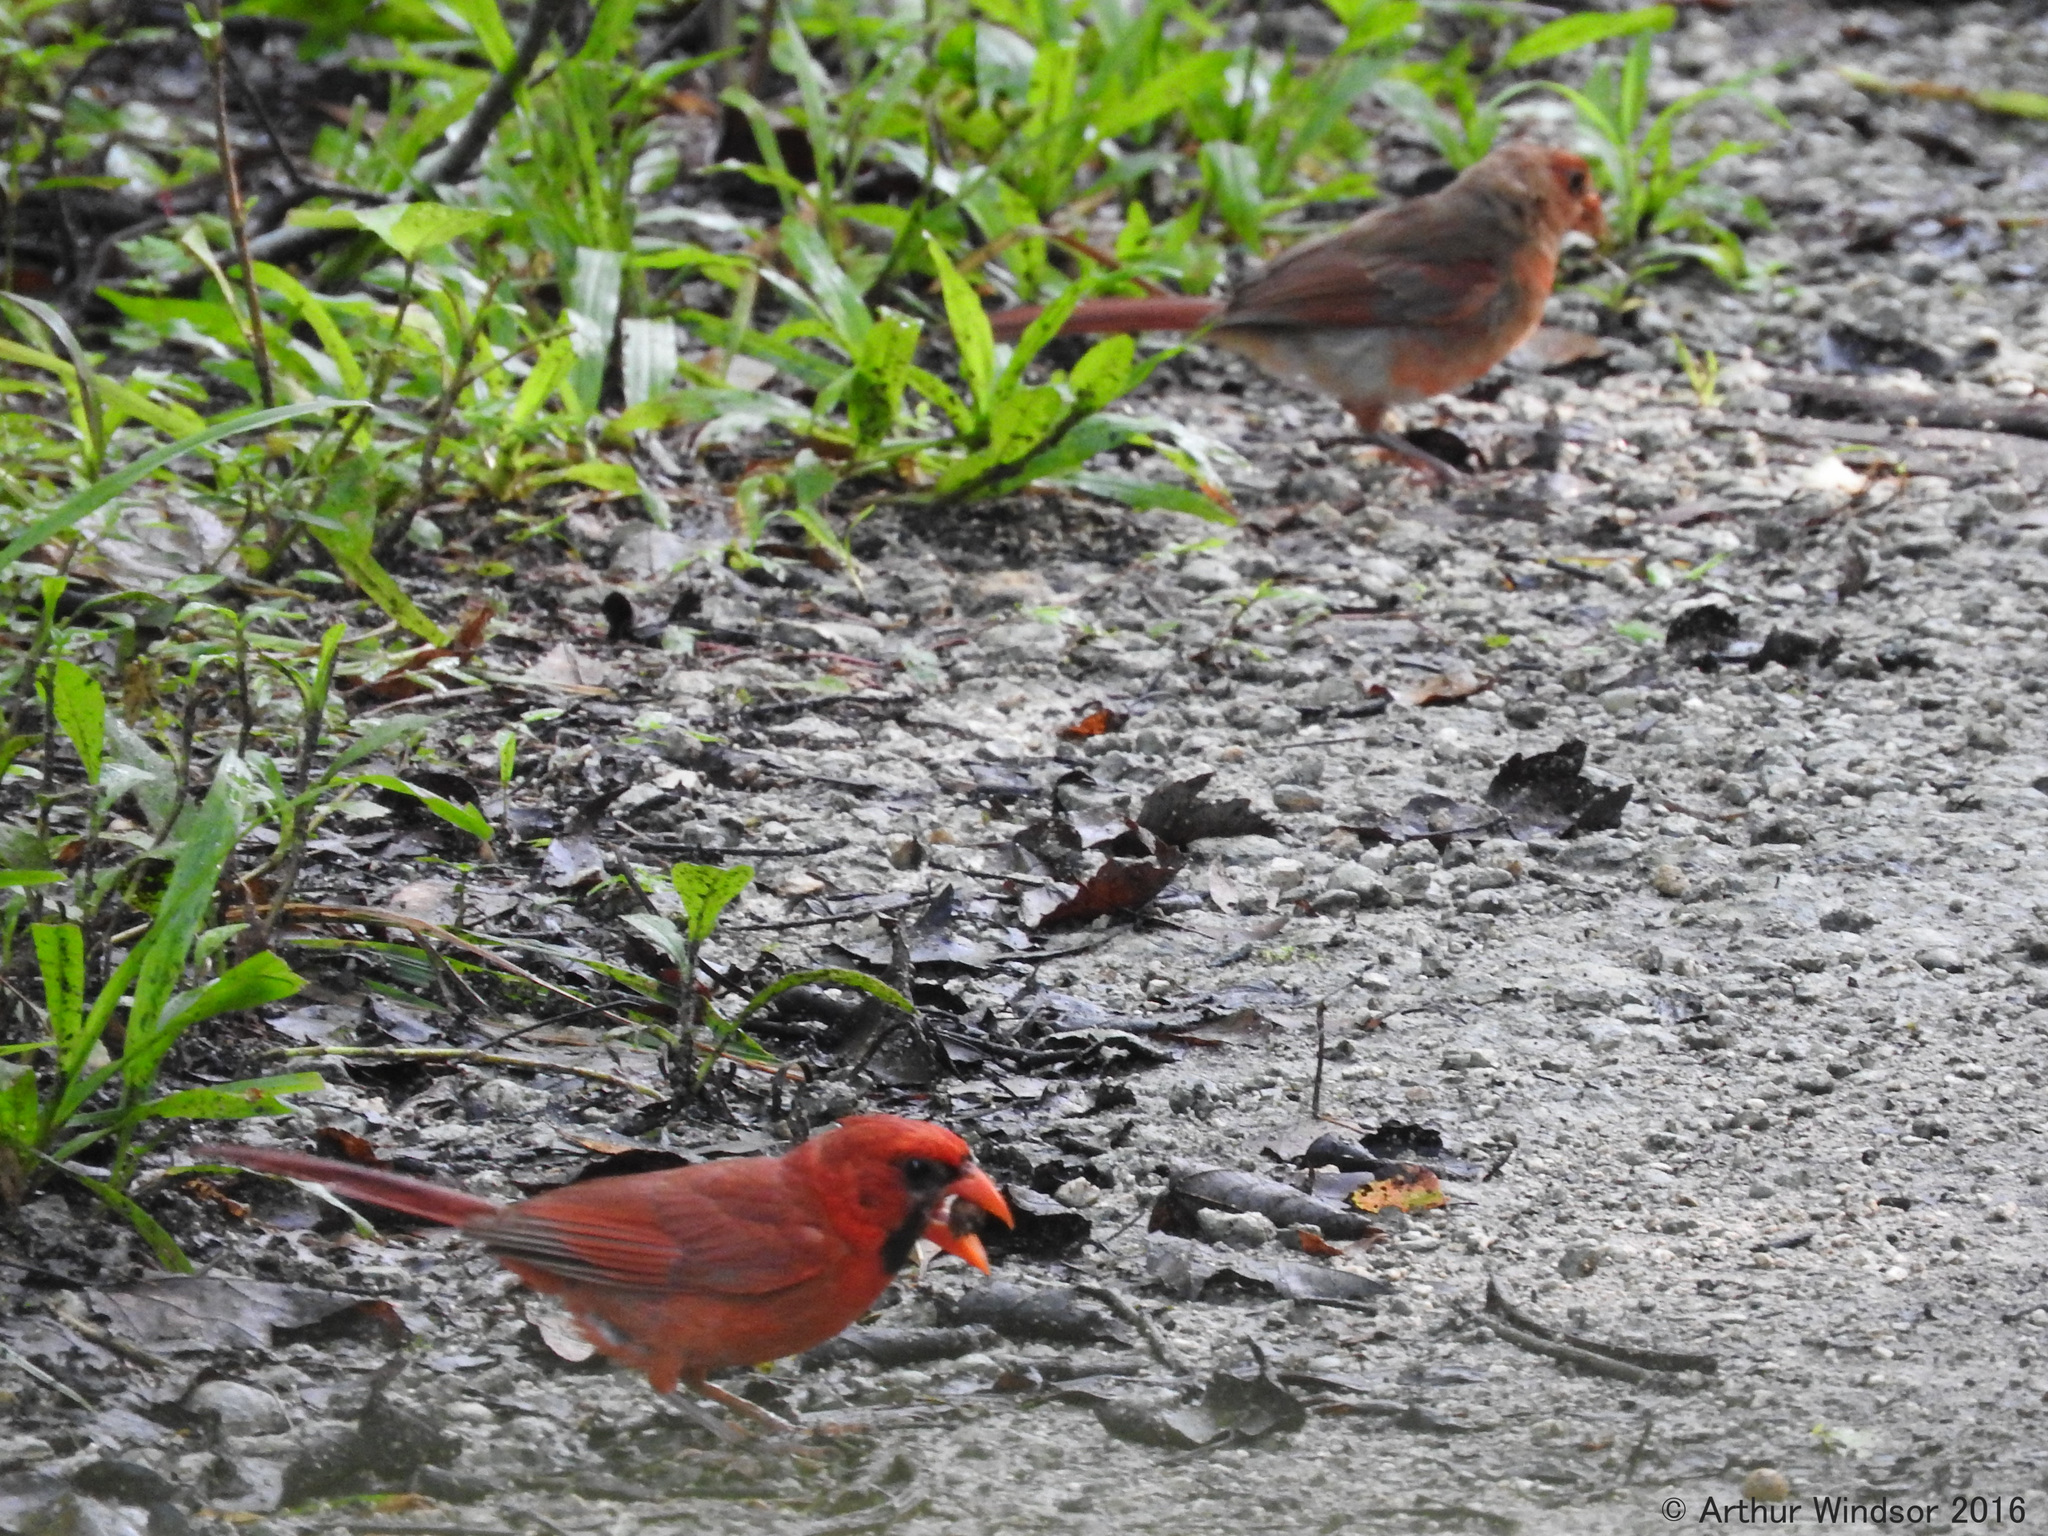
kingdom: Animalia
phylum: Chordata
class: Aves
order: Passeriformes
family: Cardinalidae
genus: Cardinalis
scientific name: Cardinalis cardinalis
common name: Northern cardinal
